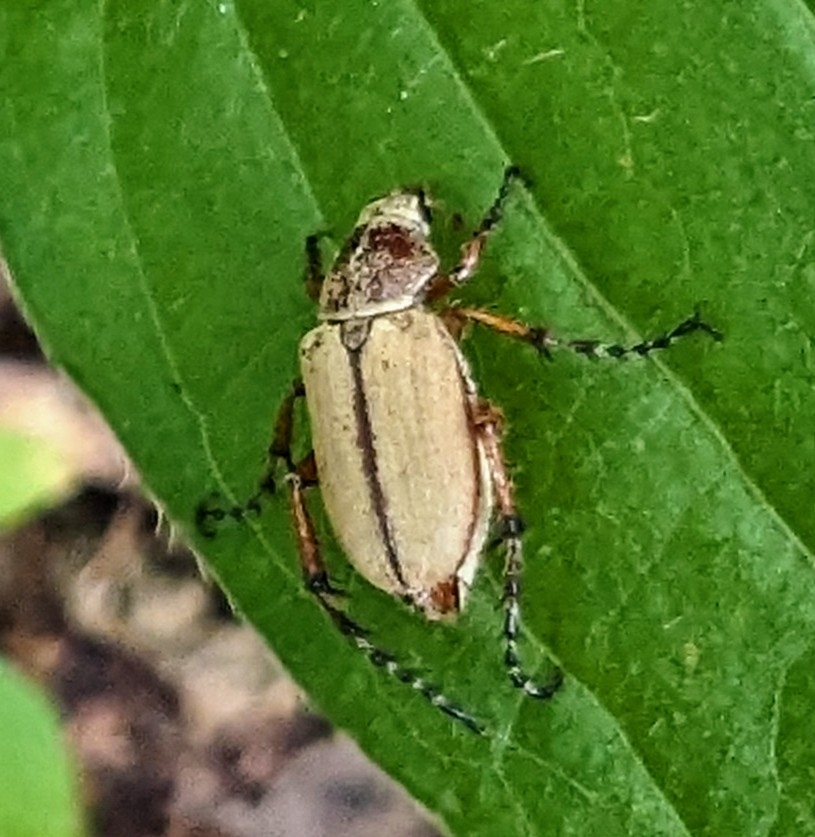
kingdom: Animalia
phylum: Arthropoda
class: Insecta
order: Coleoptera
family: Scarabaeidae
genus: Macrodactylus
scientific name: Macrodactylus subspinosus
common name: American rose chafer
